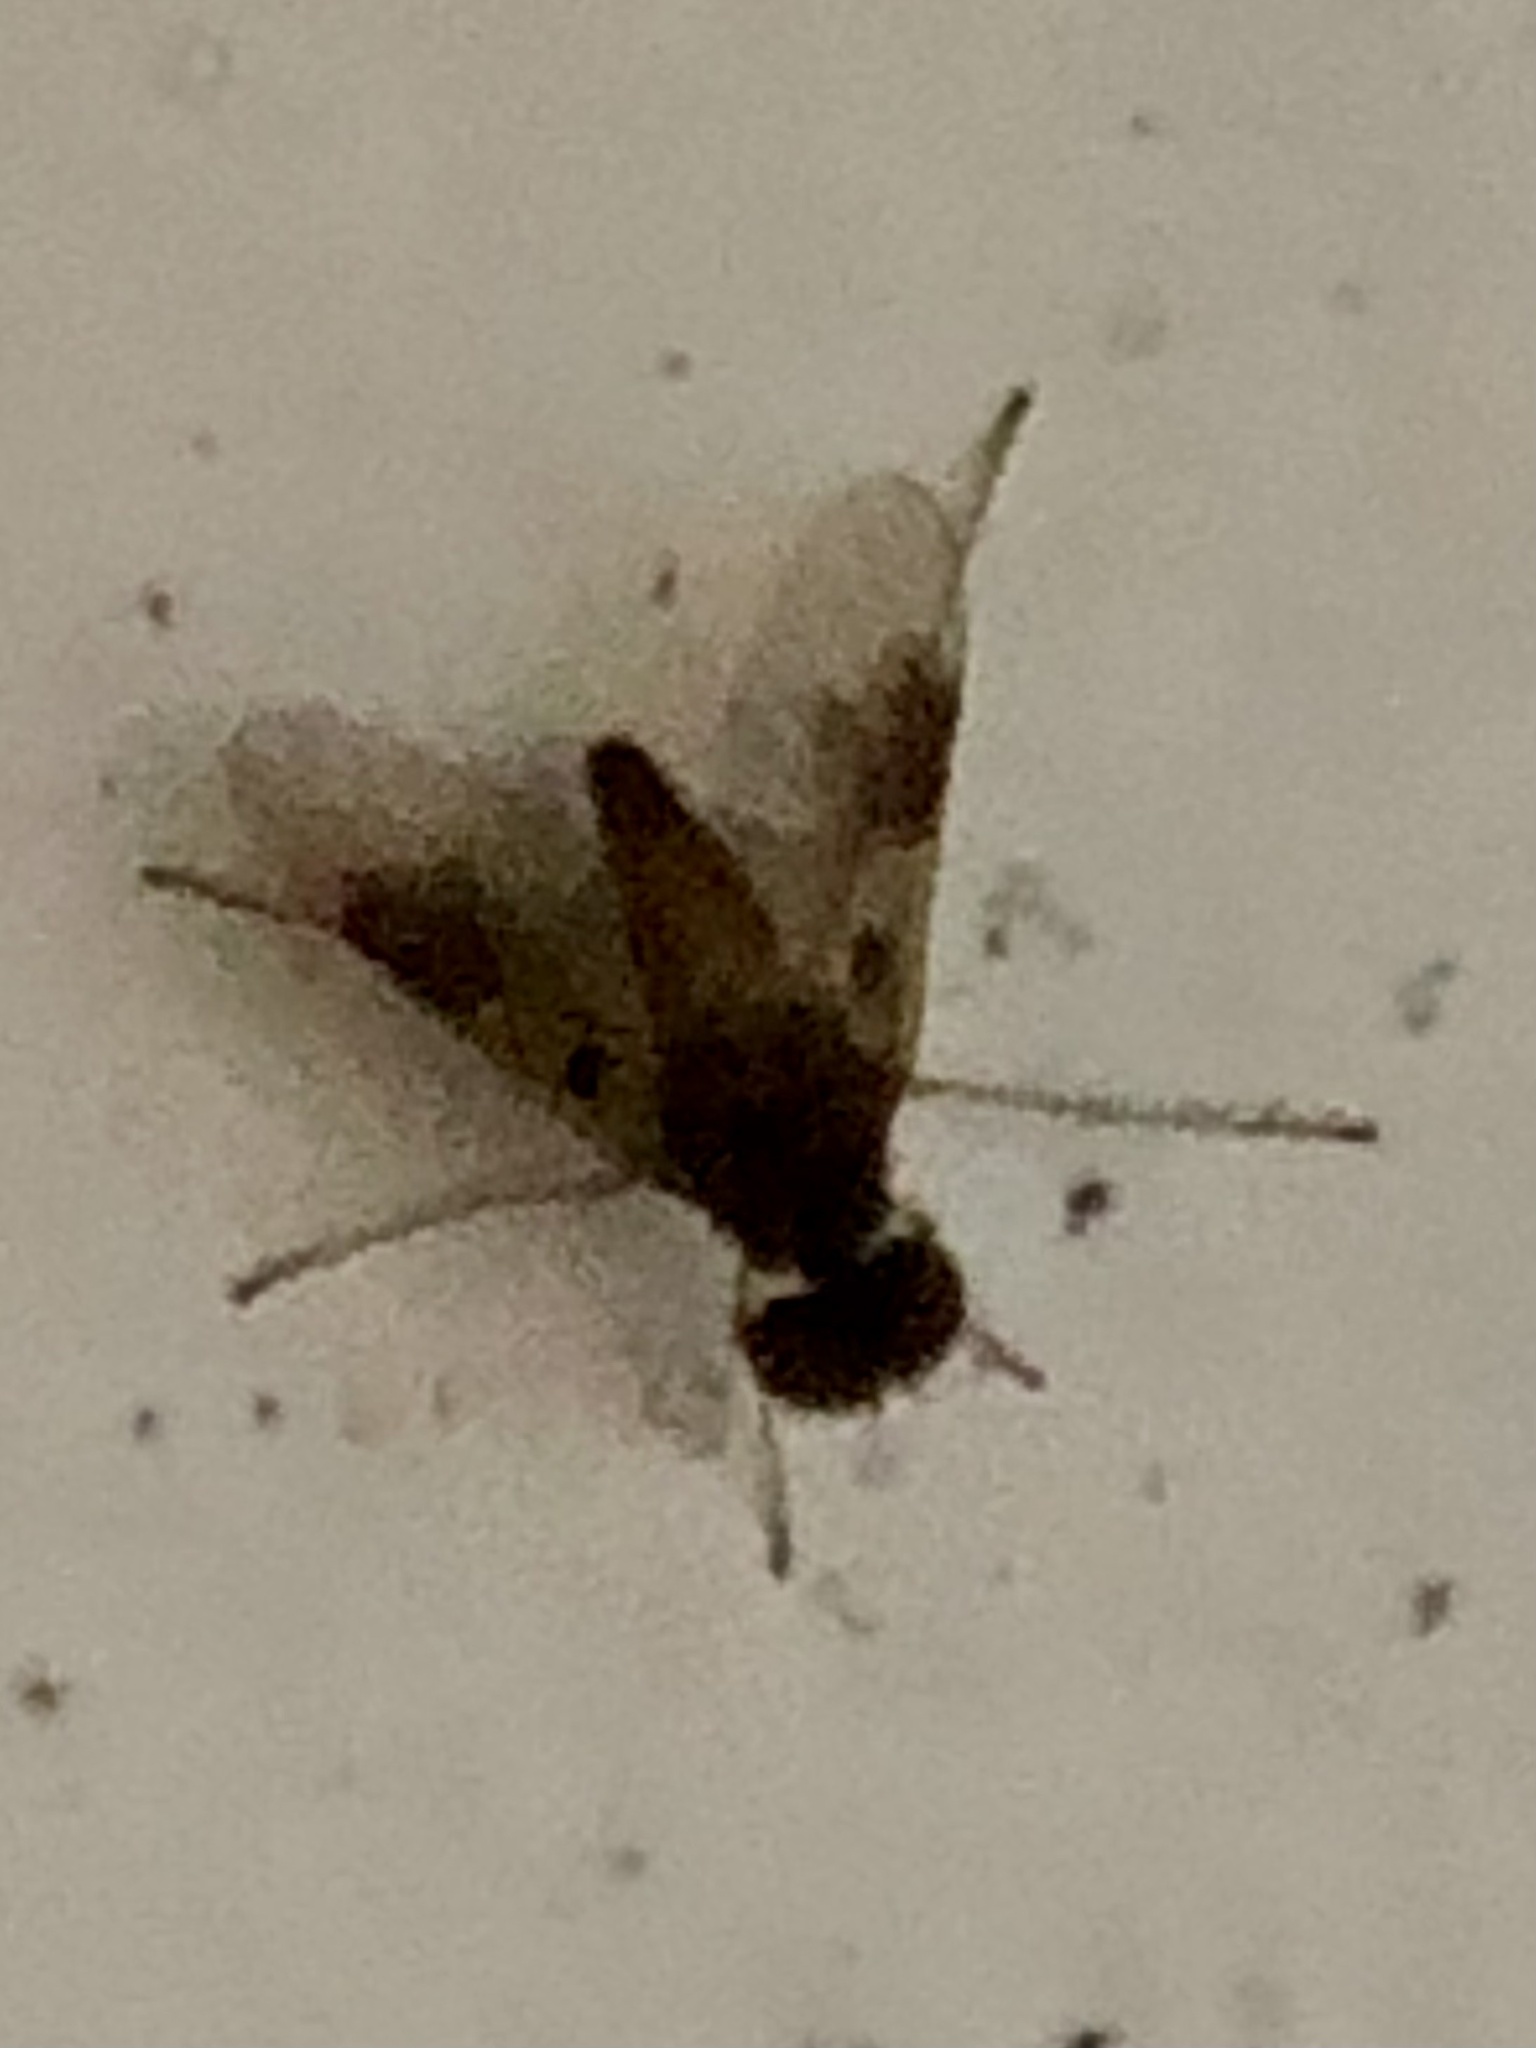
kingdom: Animalia
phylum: Arthropoda
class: Insecta
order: Diptera
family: Rhagionidae
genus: Chrysopilus
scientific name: Chrysopilus quadratus
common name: Quadrate snipe fly
